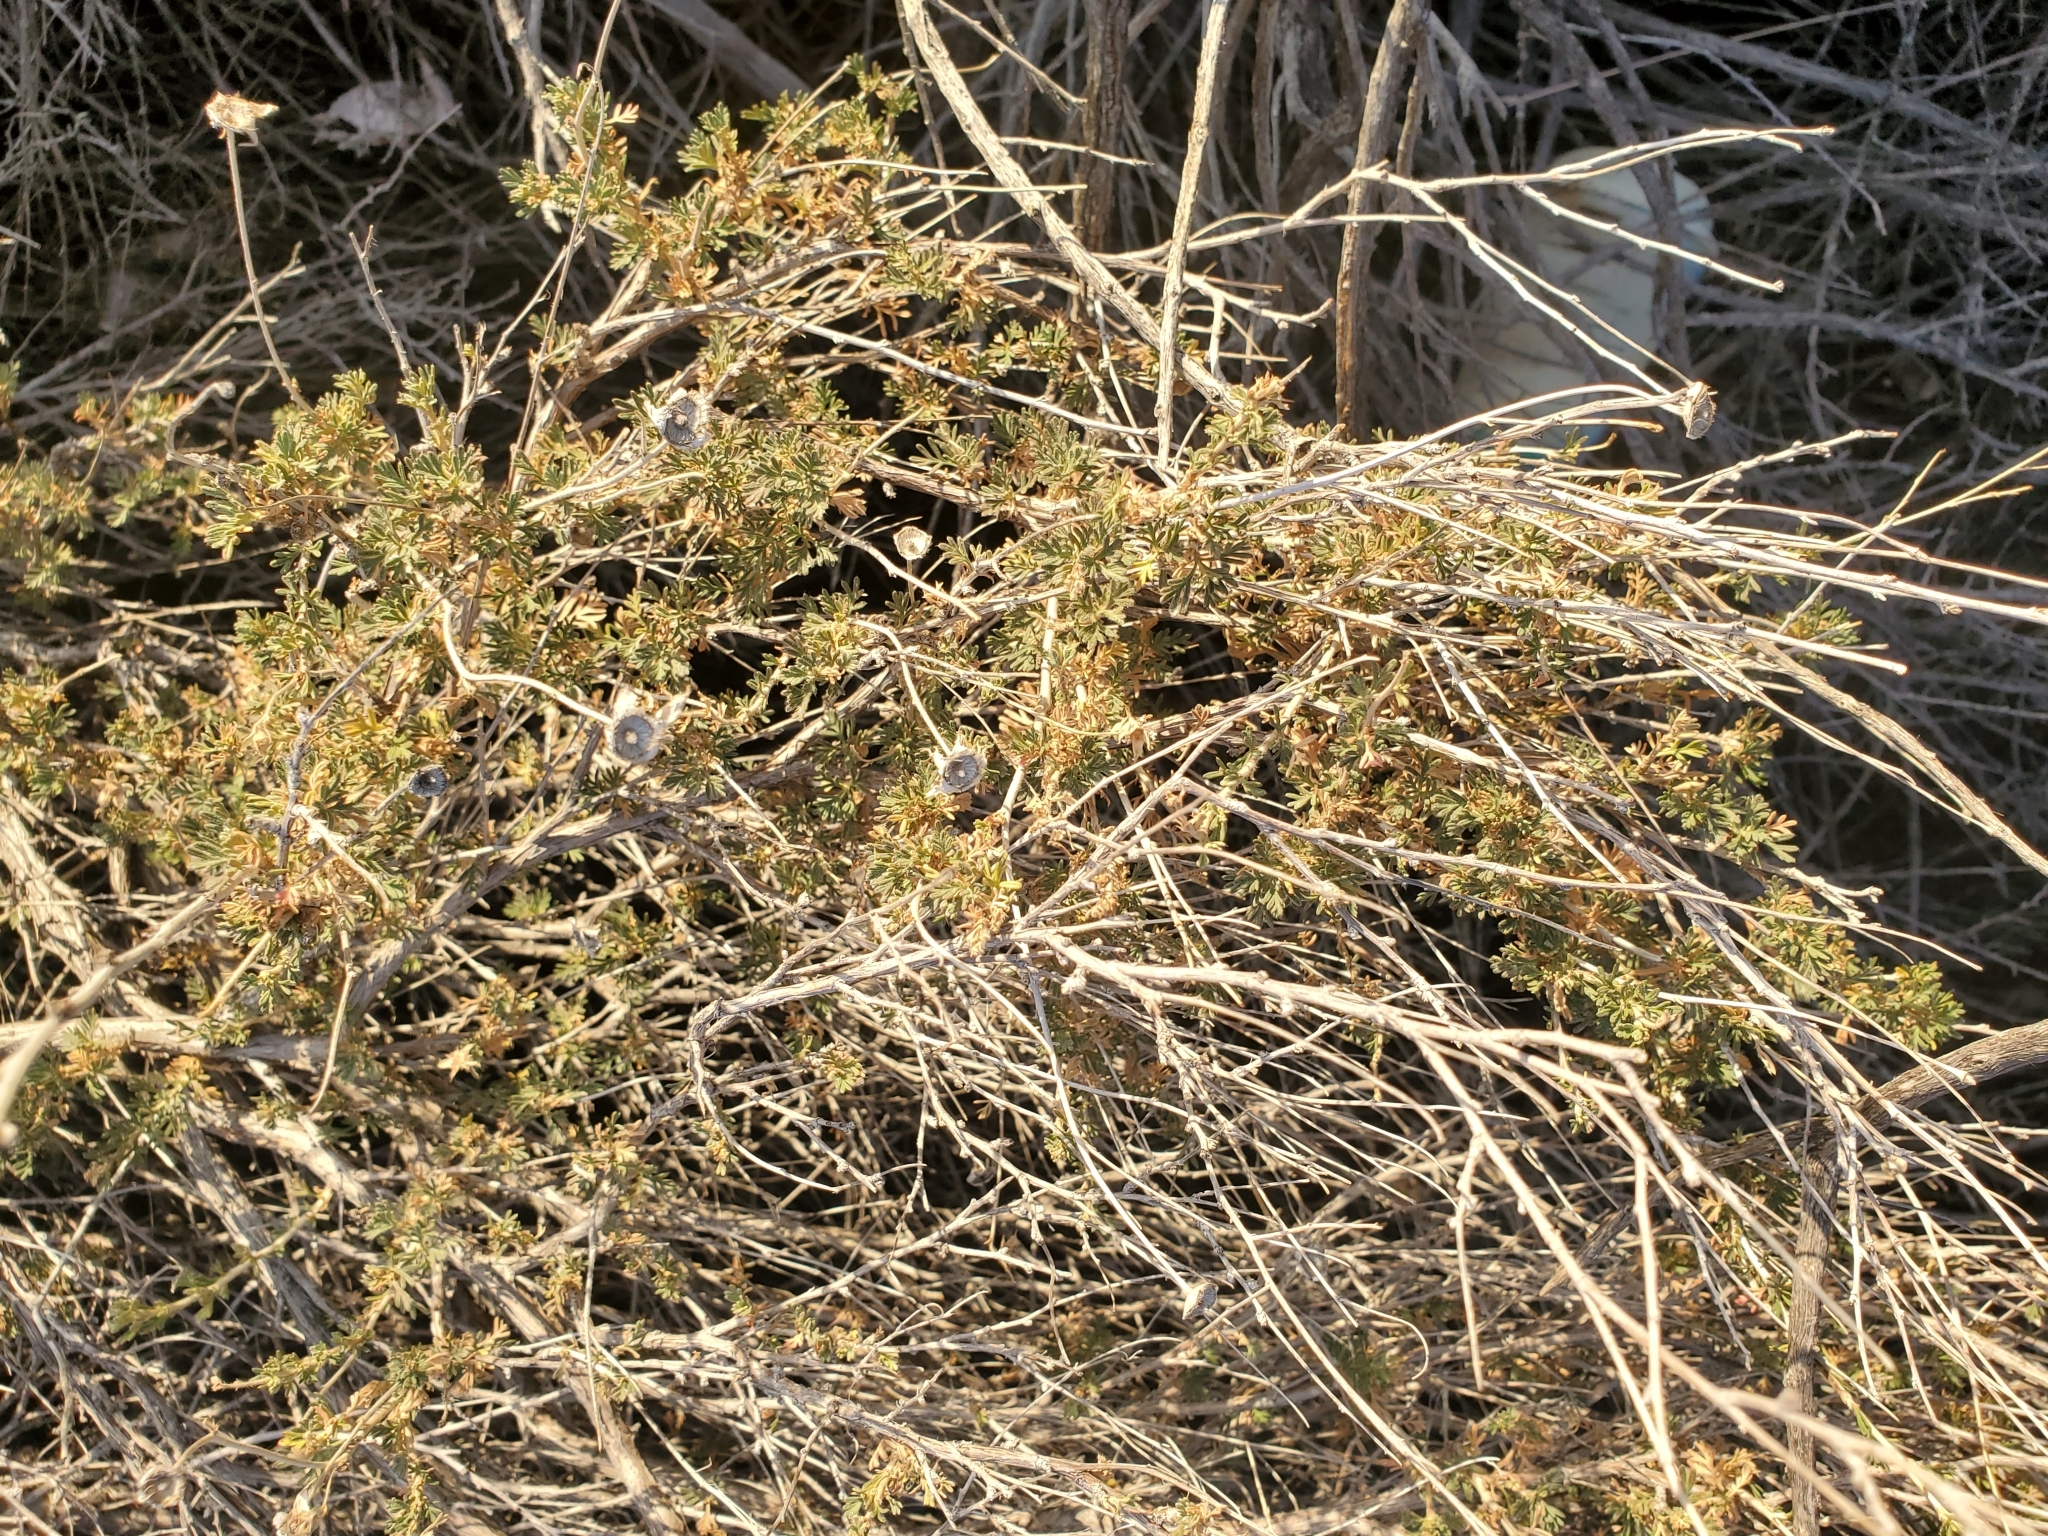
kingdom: Plantae
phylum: Tracheophyta
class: Magnoliopsida
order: Rosales
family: Rosaceae
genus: Fallugia
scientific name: Fallugia paradoxa
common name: Apache-plume
